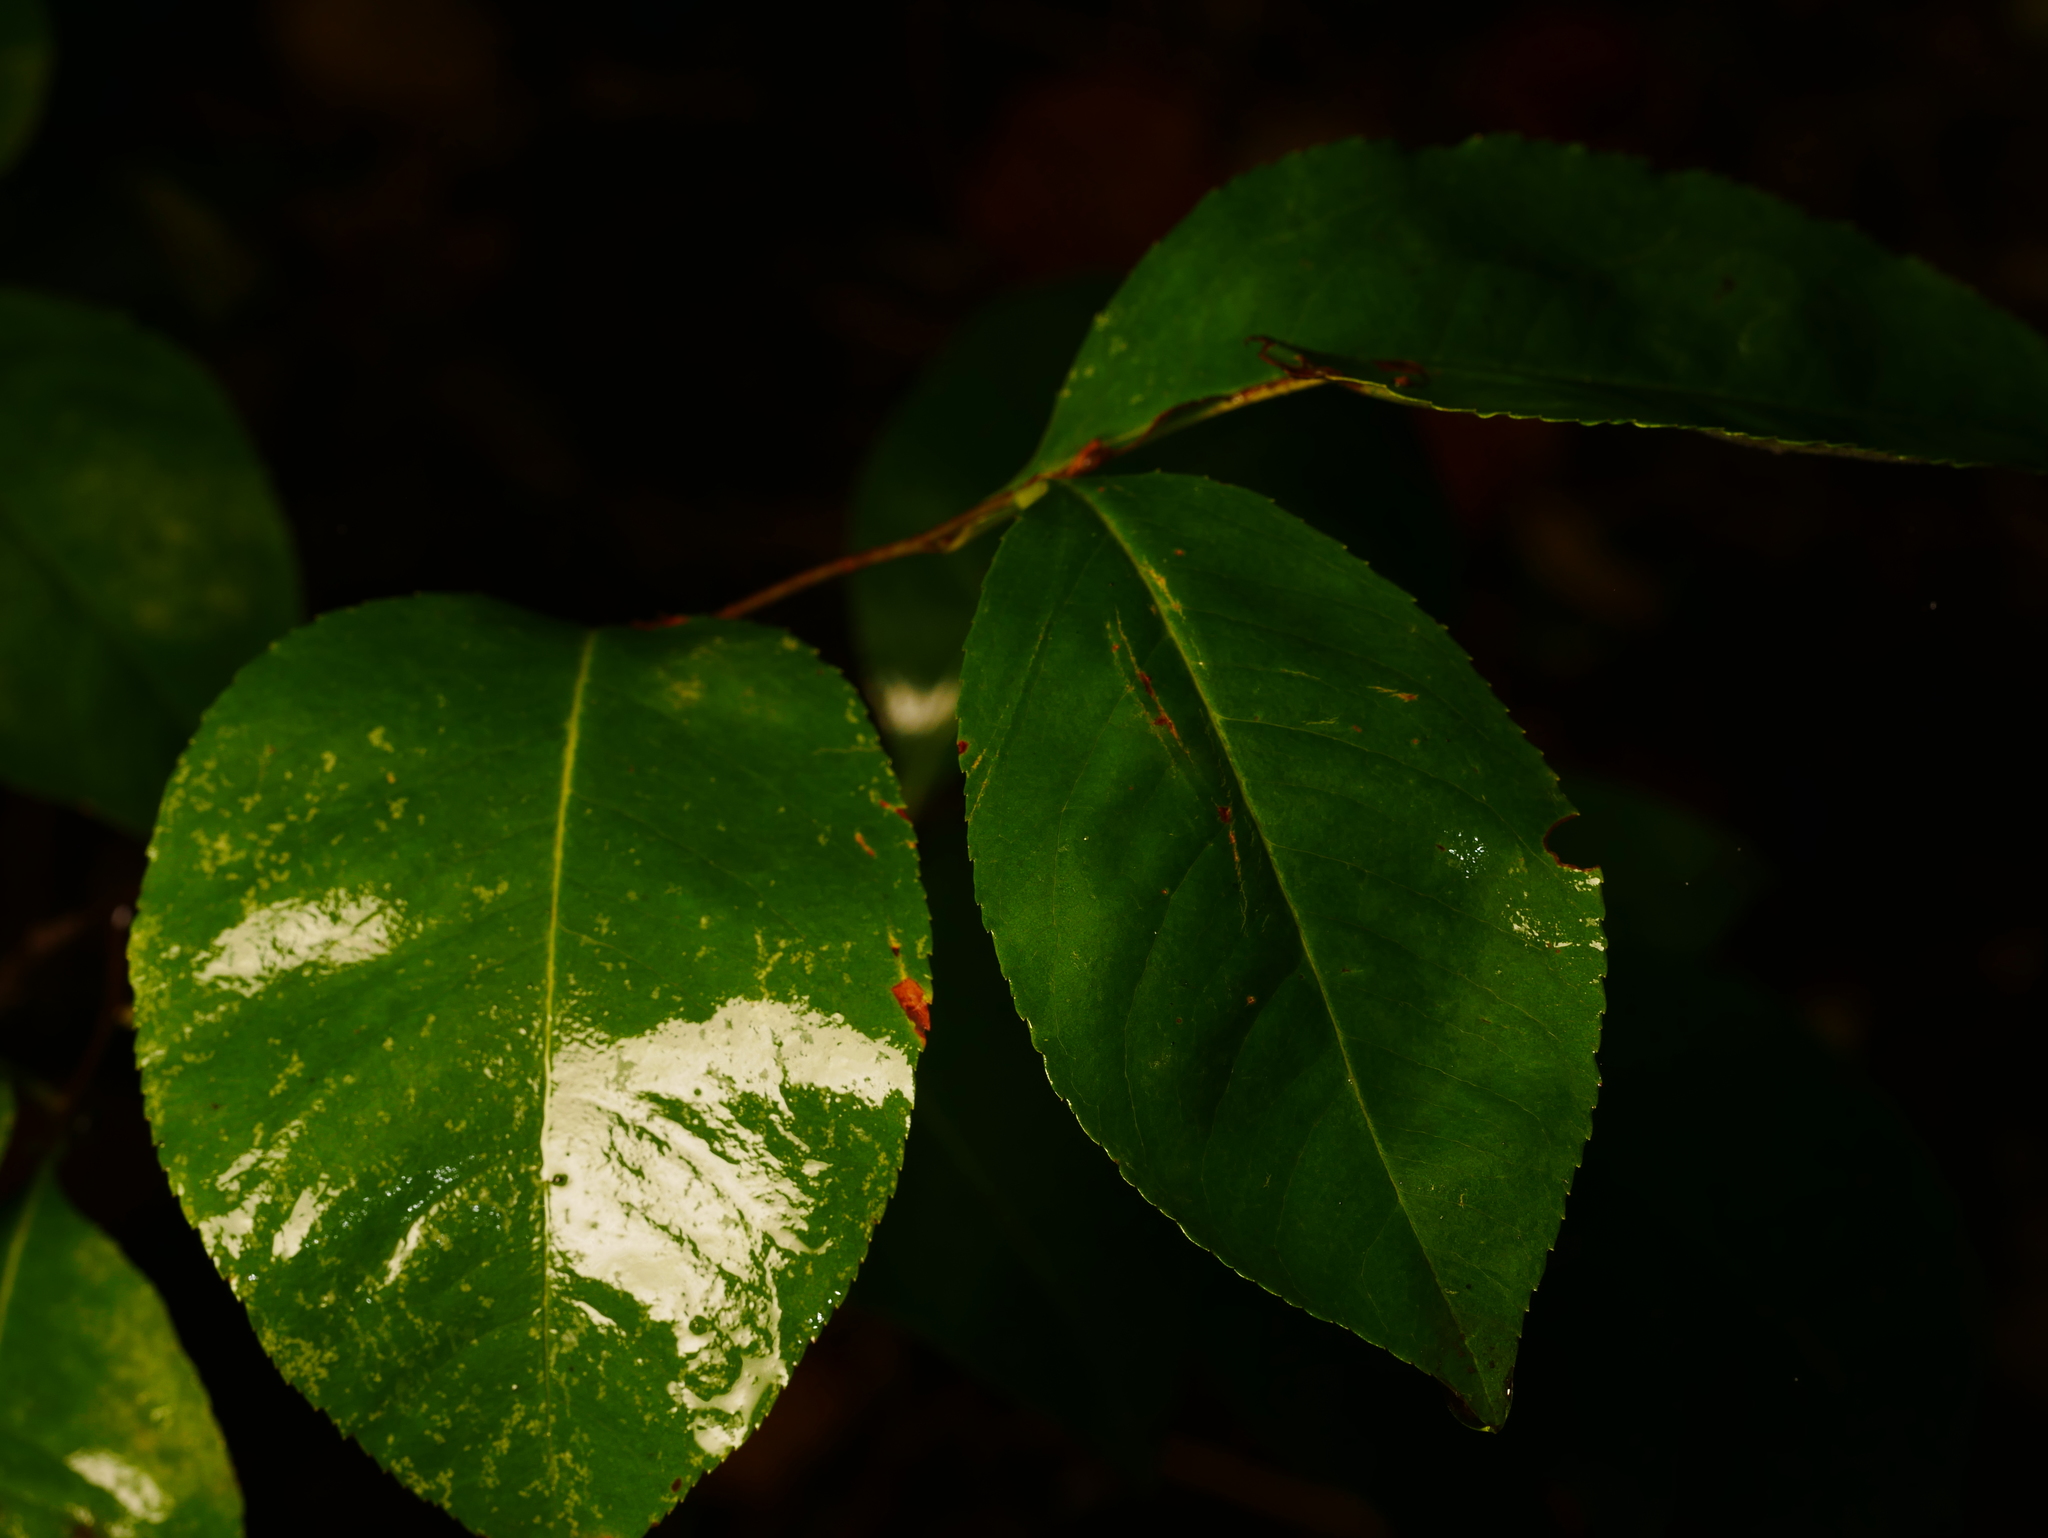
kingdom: Plantae
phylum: Tracheophyta
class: Magnoliopsida
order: Rosales
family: Rosaceae
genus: Prunus
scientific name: Prunus serotina
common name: Black cherry
